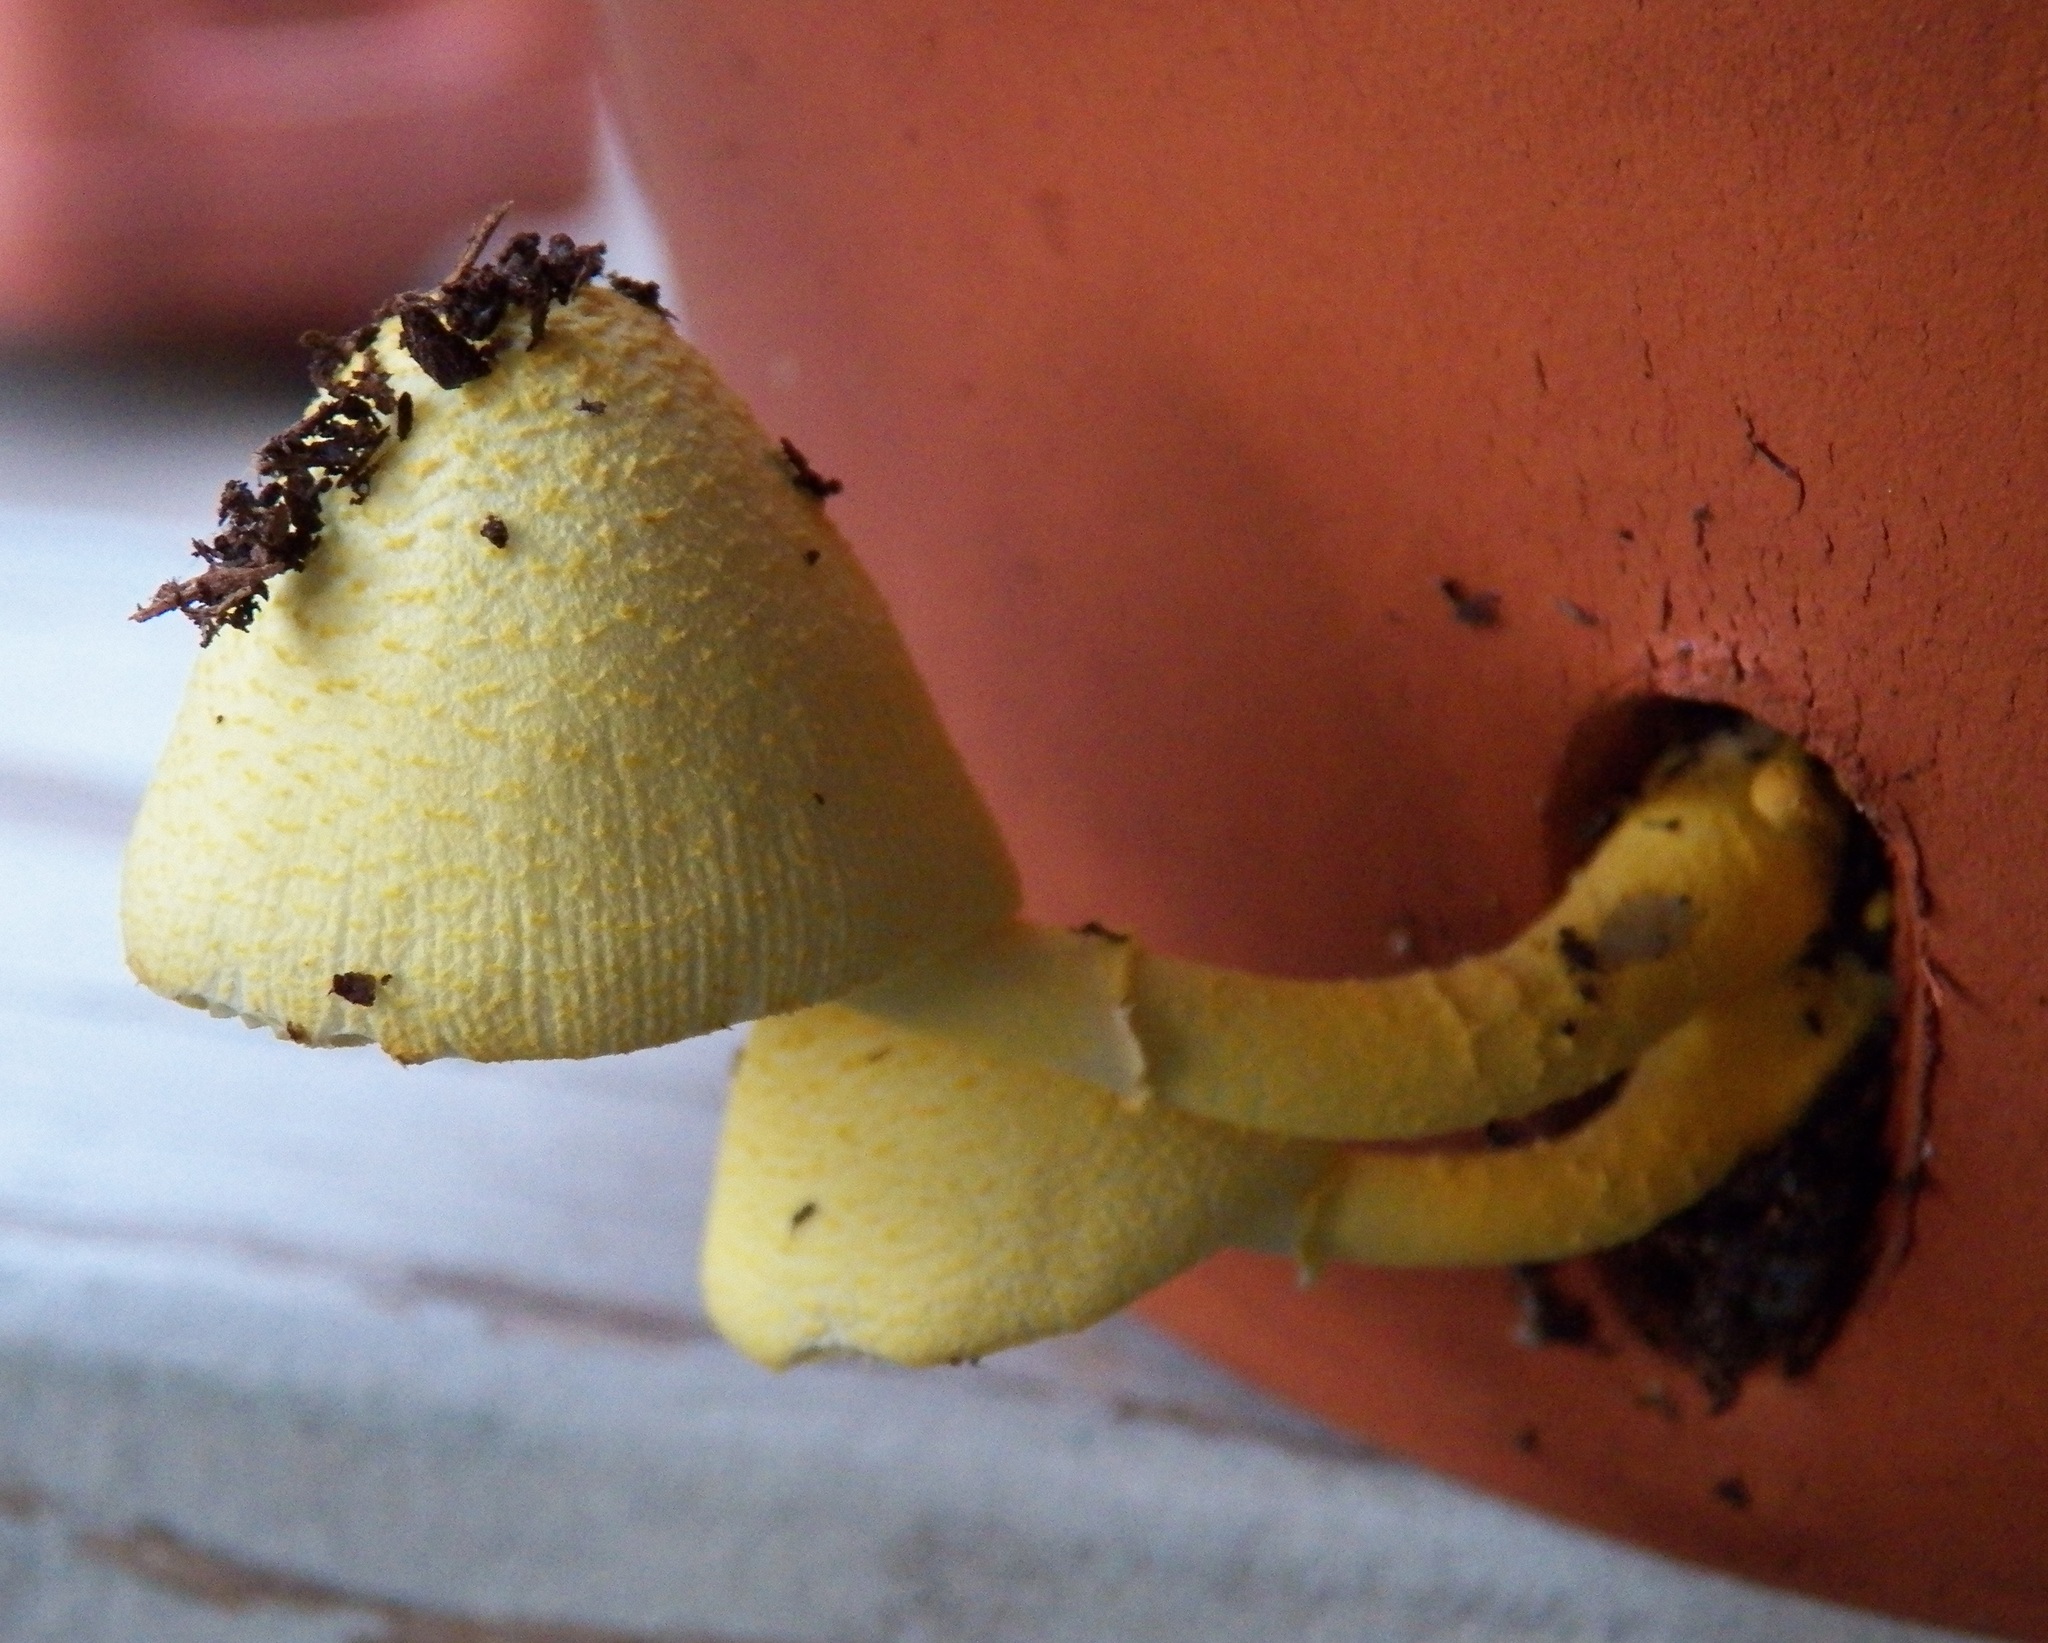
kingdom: Fungi
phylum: Basidiomycota
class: Agaricomycetes
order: Agaricales
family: Agaricaceae
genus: Leucocoprinus
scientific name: Leucocoprinus birnbaumii
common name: Plantpot dapperling
